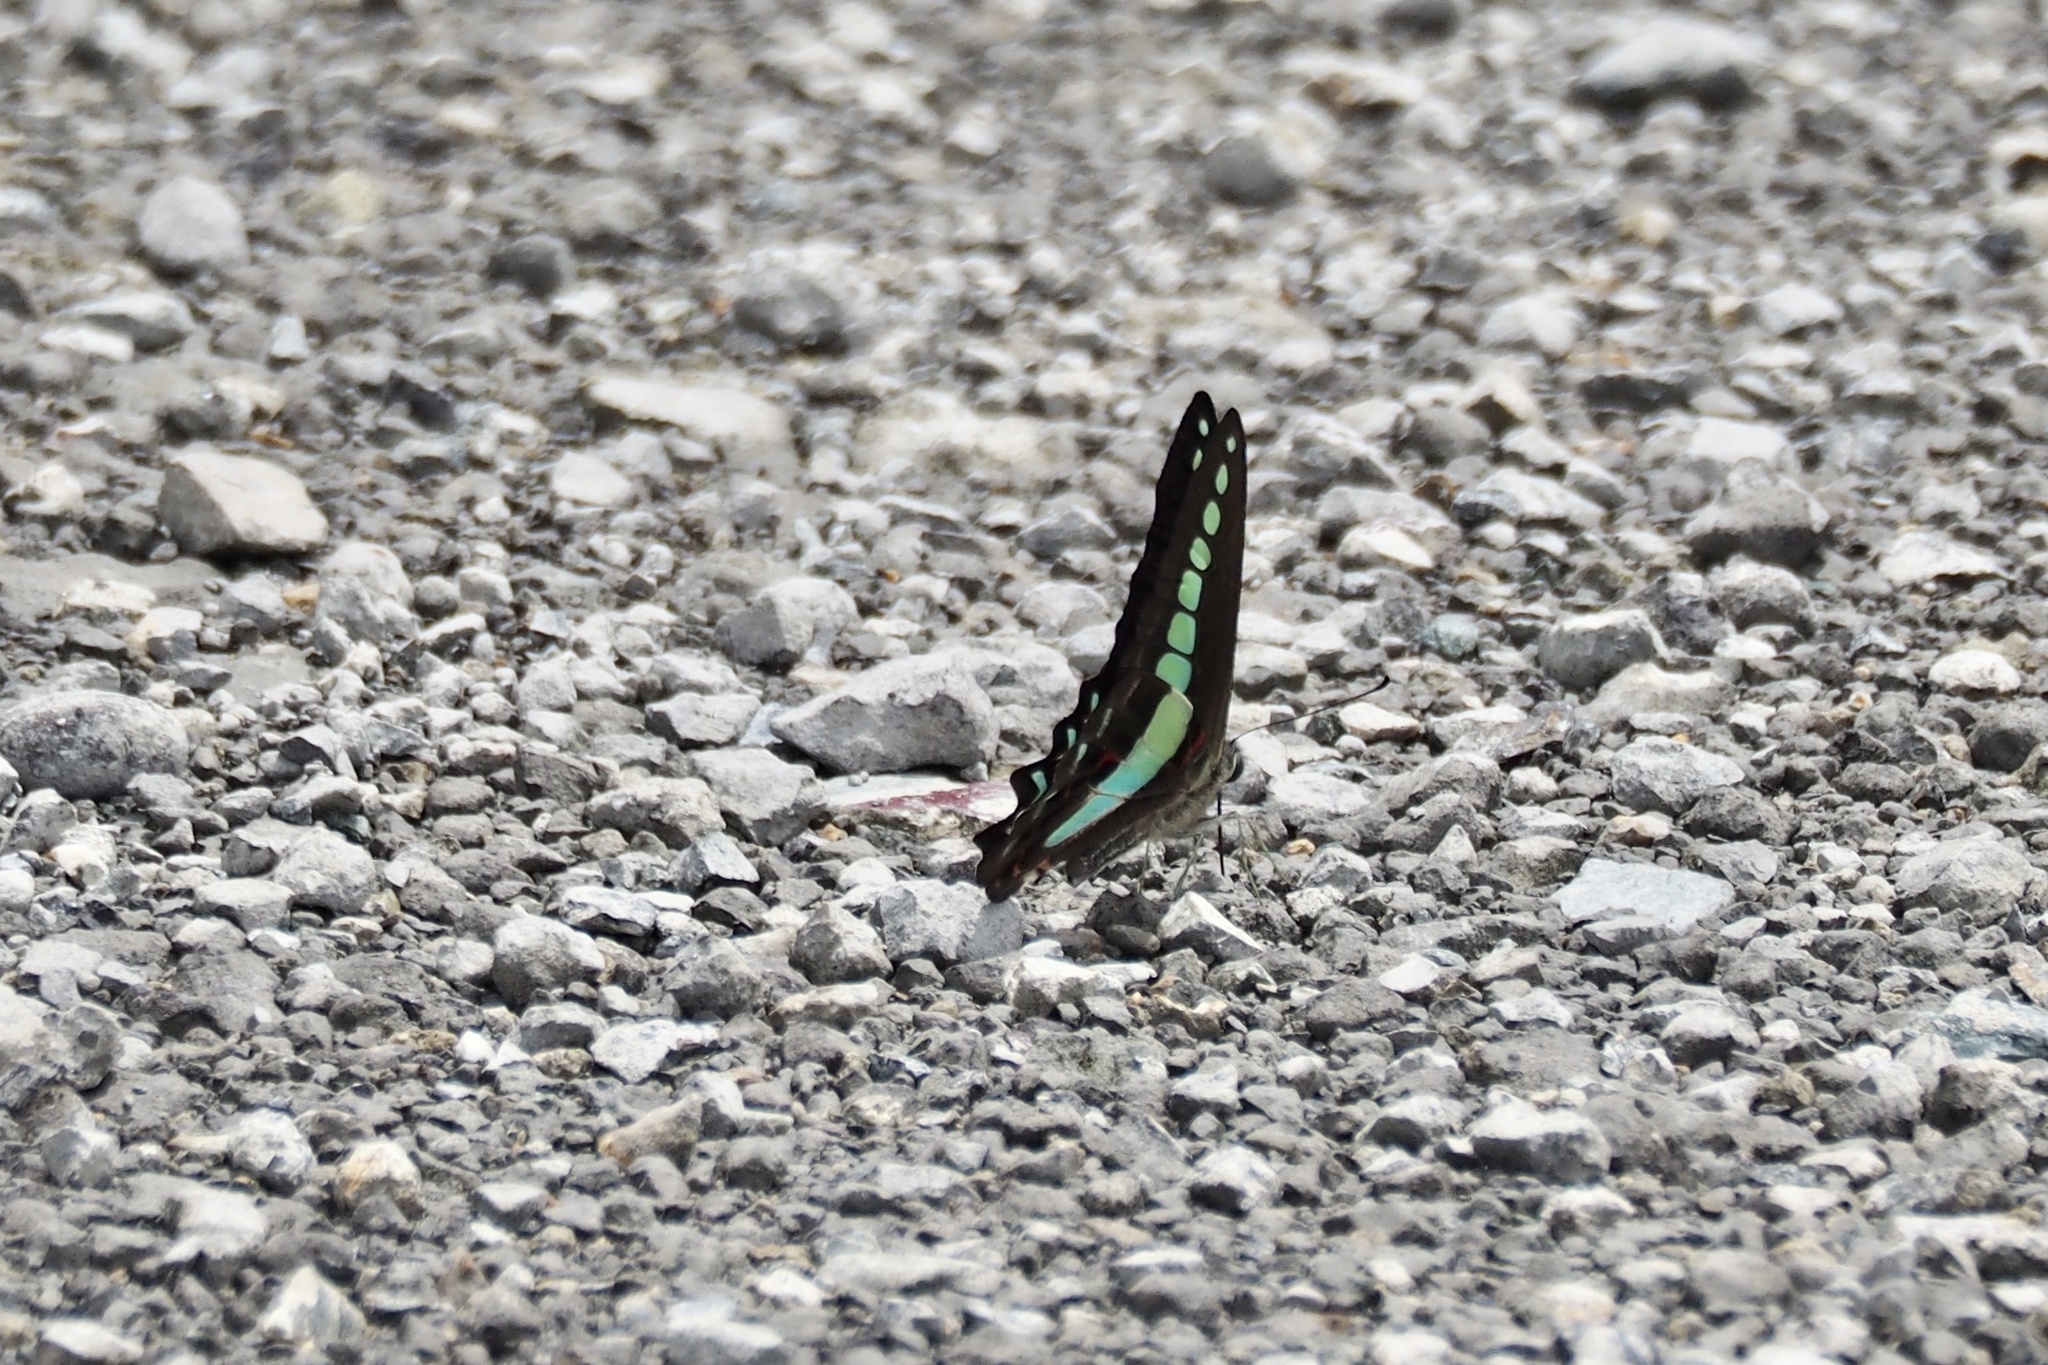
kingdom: Fungi
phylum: Ascomycota
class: Sordariomycetes
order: Microascales
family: Microascaceae
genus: Graphium
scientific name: Graphium sarpedon
